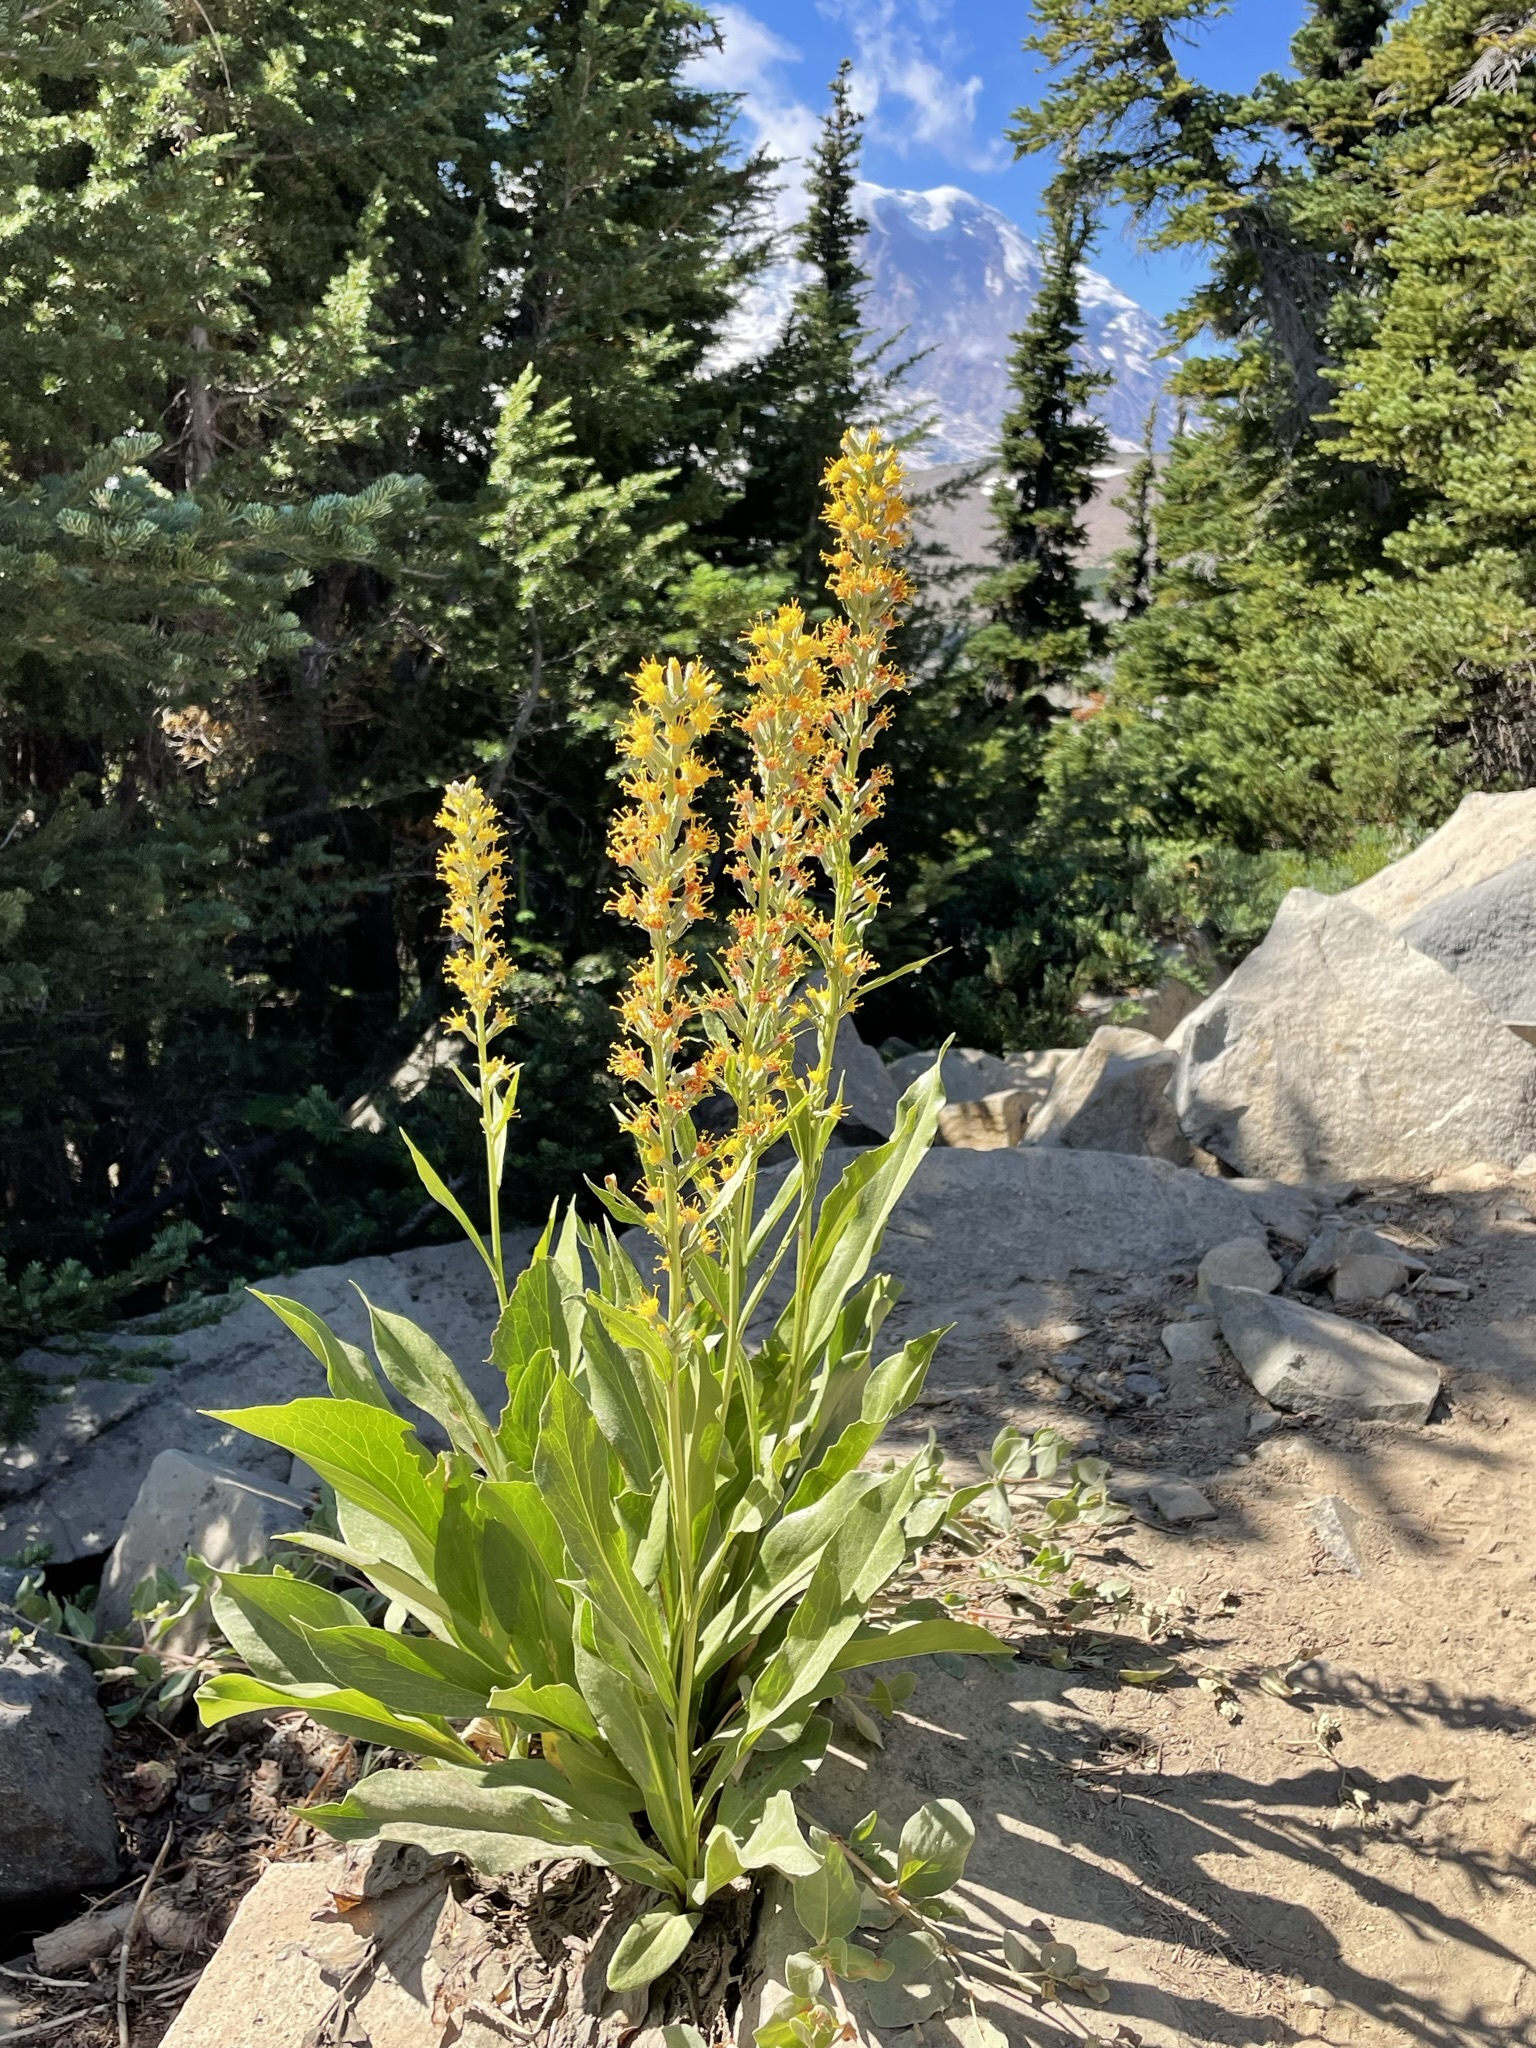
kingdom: Plantae
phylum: Tracheophyta
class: Magnoliopsida
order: Asterales
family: Asteraceae
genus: Rainiera
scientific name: Rainiera stricta
